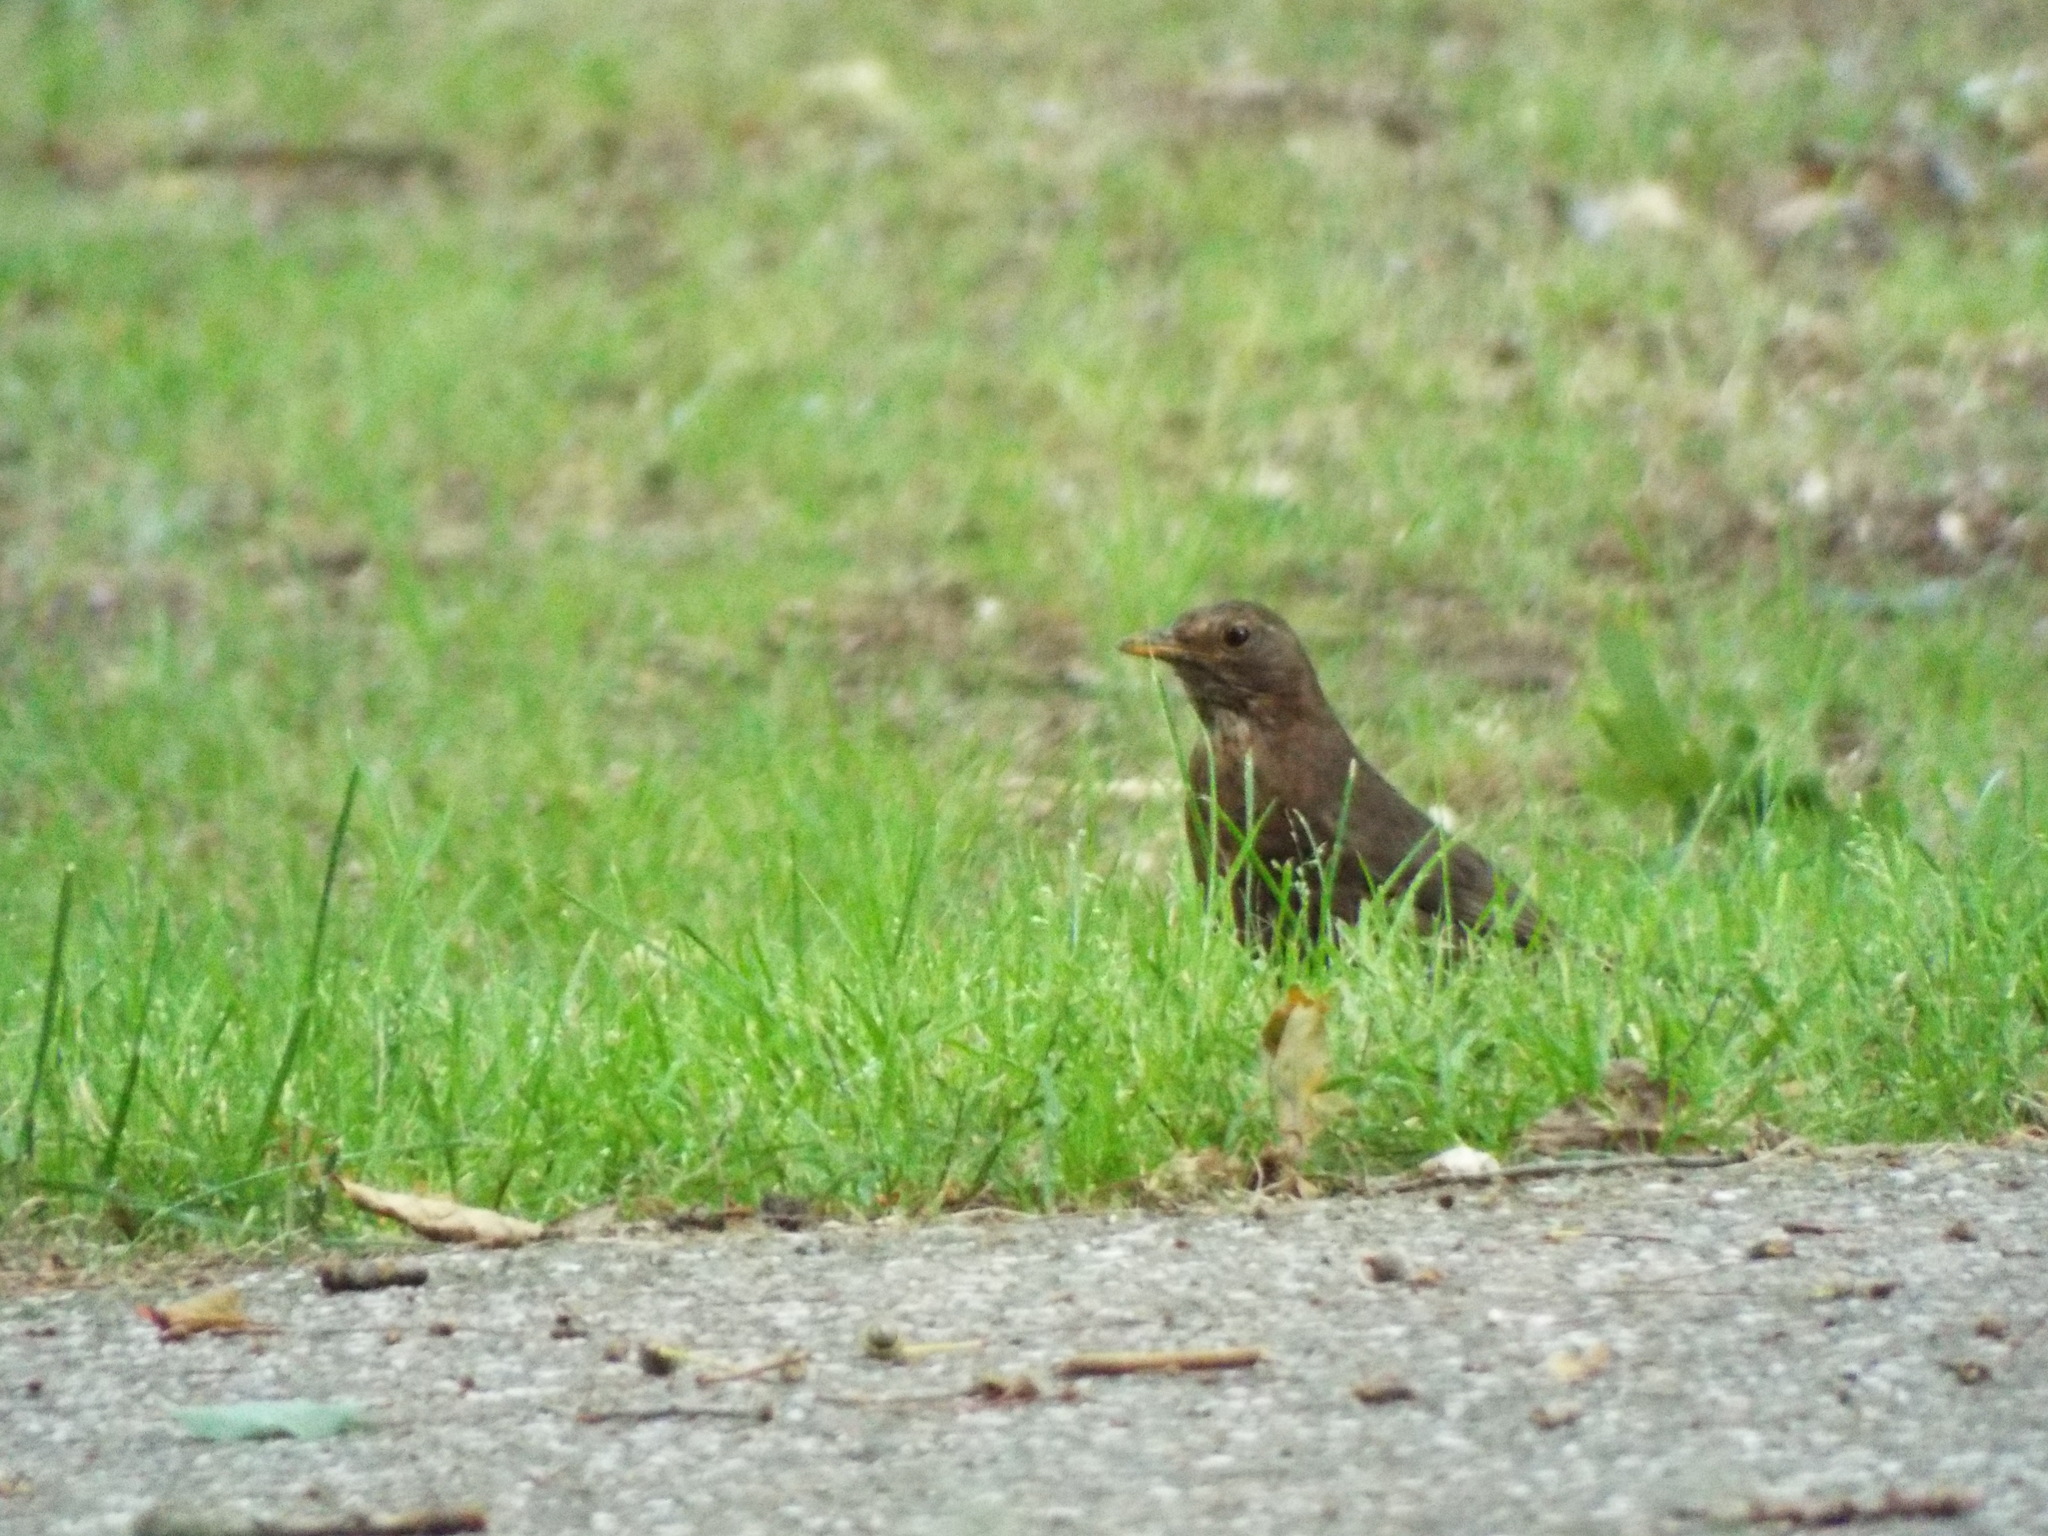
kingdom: Animalia
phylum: Chordata
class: Aves
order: Passeriformes
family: Turdidae
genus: Turdus
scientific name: Turdus merula
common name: Common blackbird
